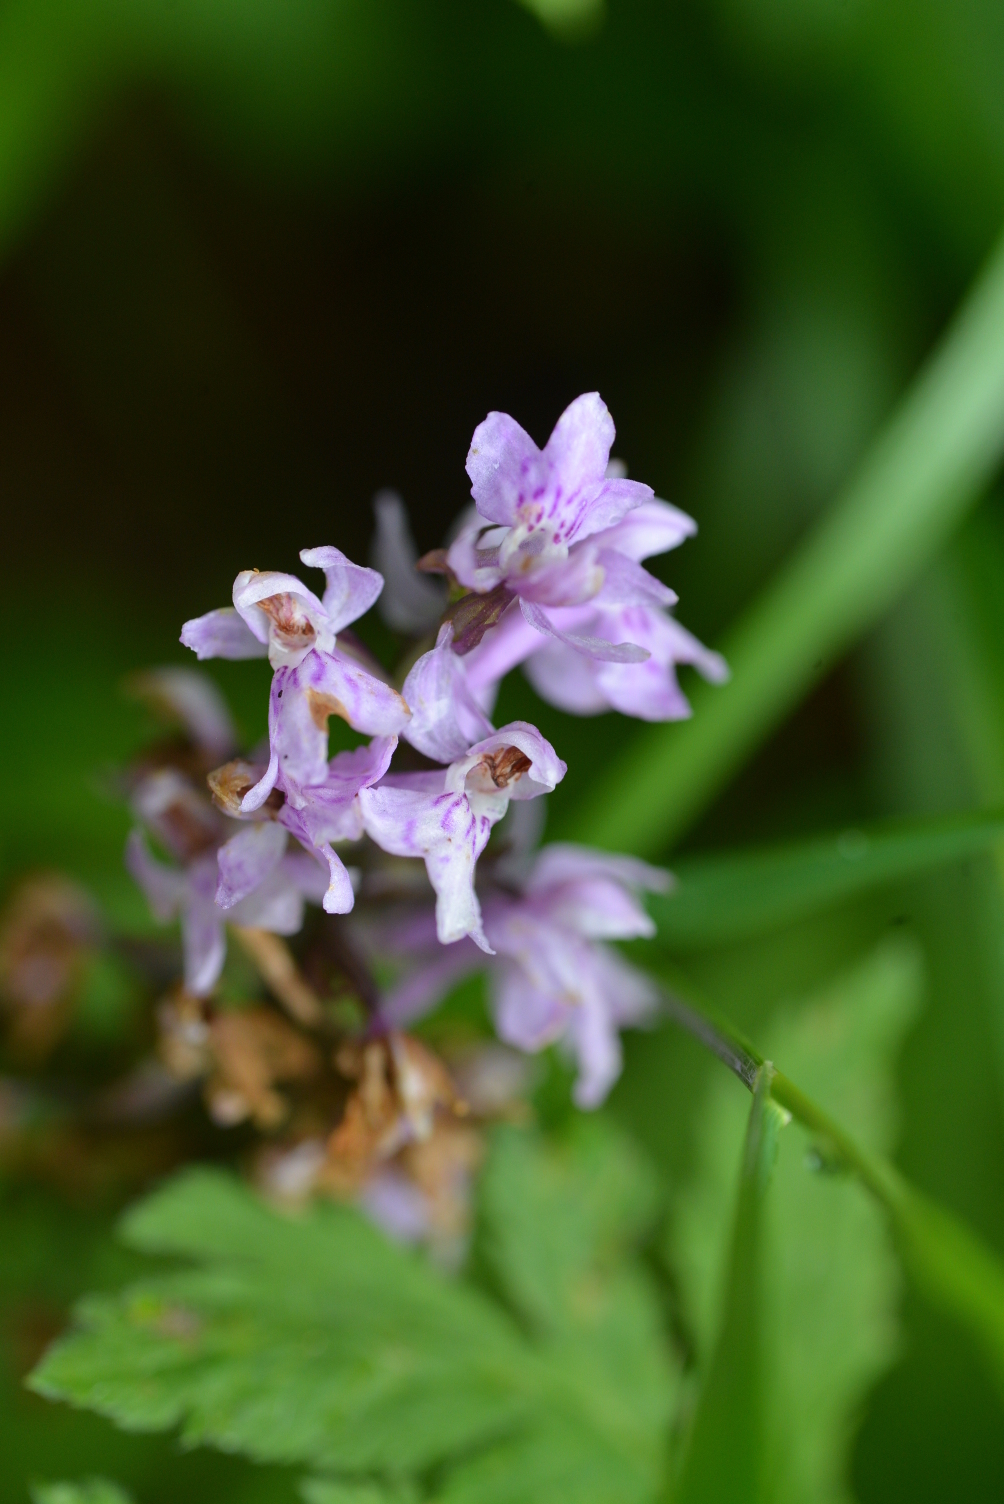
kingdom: Plantae
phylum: Tracheophyta
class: Liliopsida
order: Asparagales
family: Orchidaceae
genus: Dactylorhiza
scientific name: Dactylorhiza maculata
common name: Heath spotted-orchid
